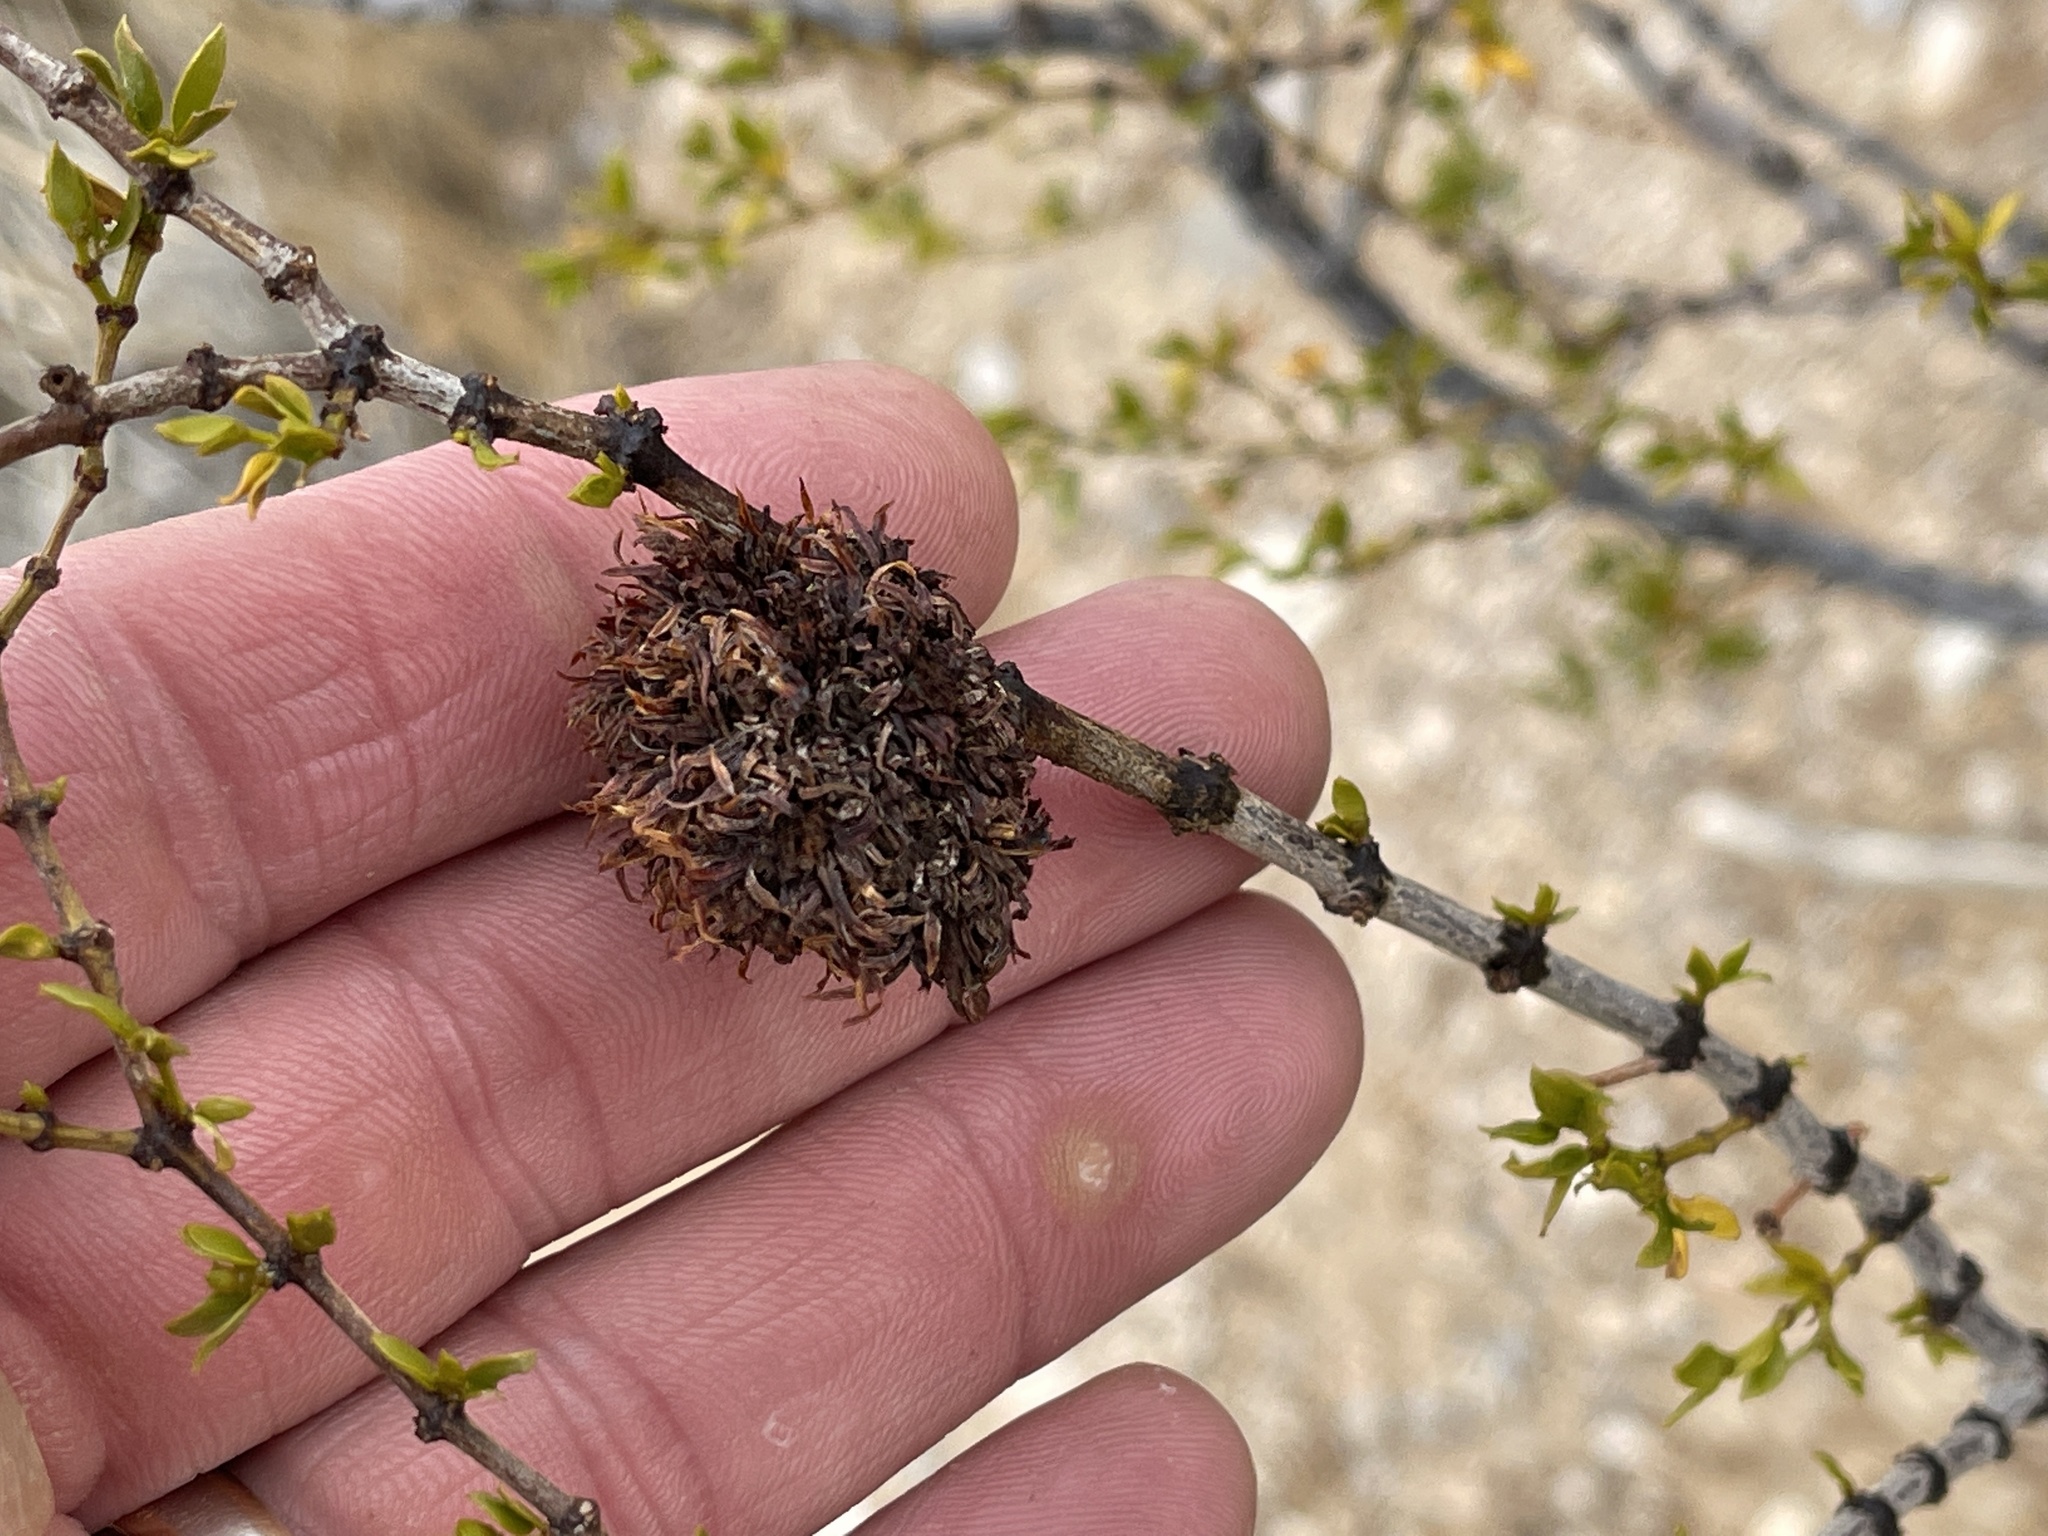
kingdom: Animalia
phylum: Arthropoda
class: Insecta
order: Diptera
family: Cecidomyiidae
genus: Asphondylia
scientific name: Asphondylia auripila
